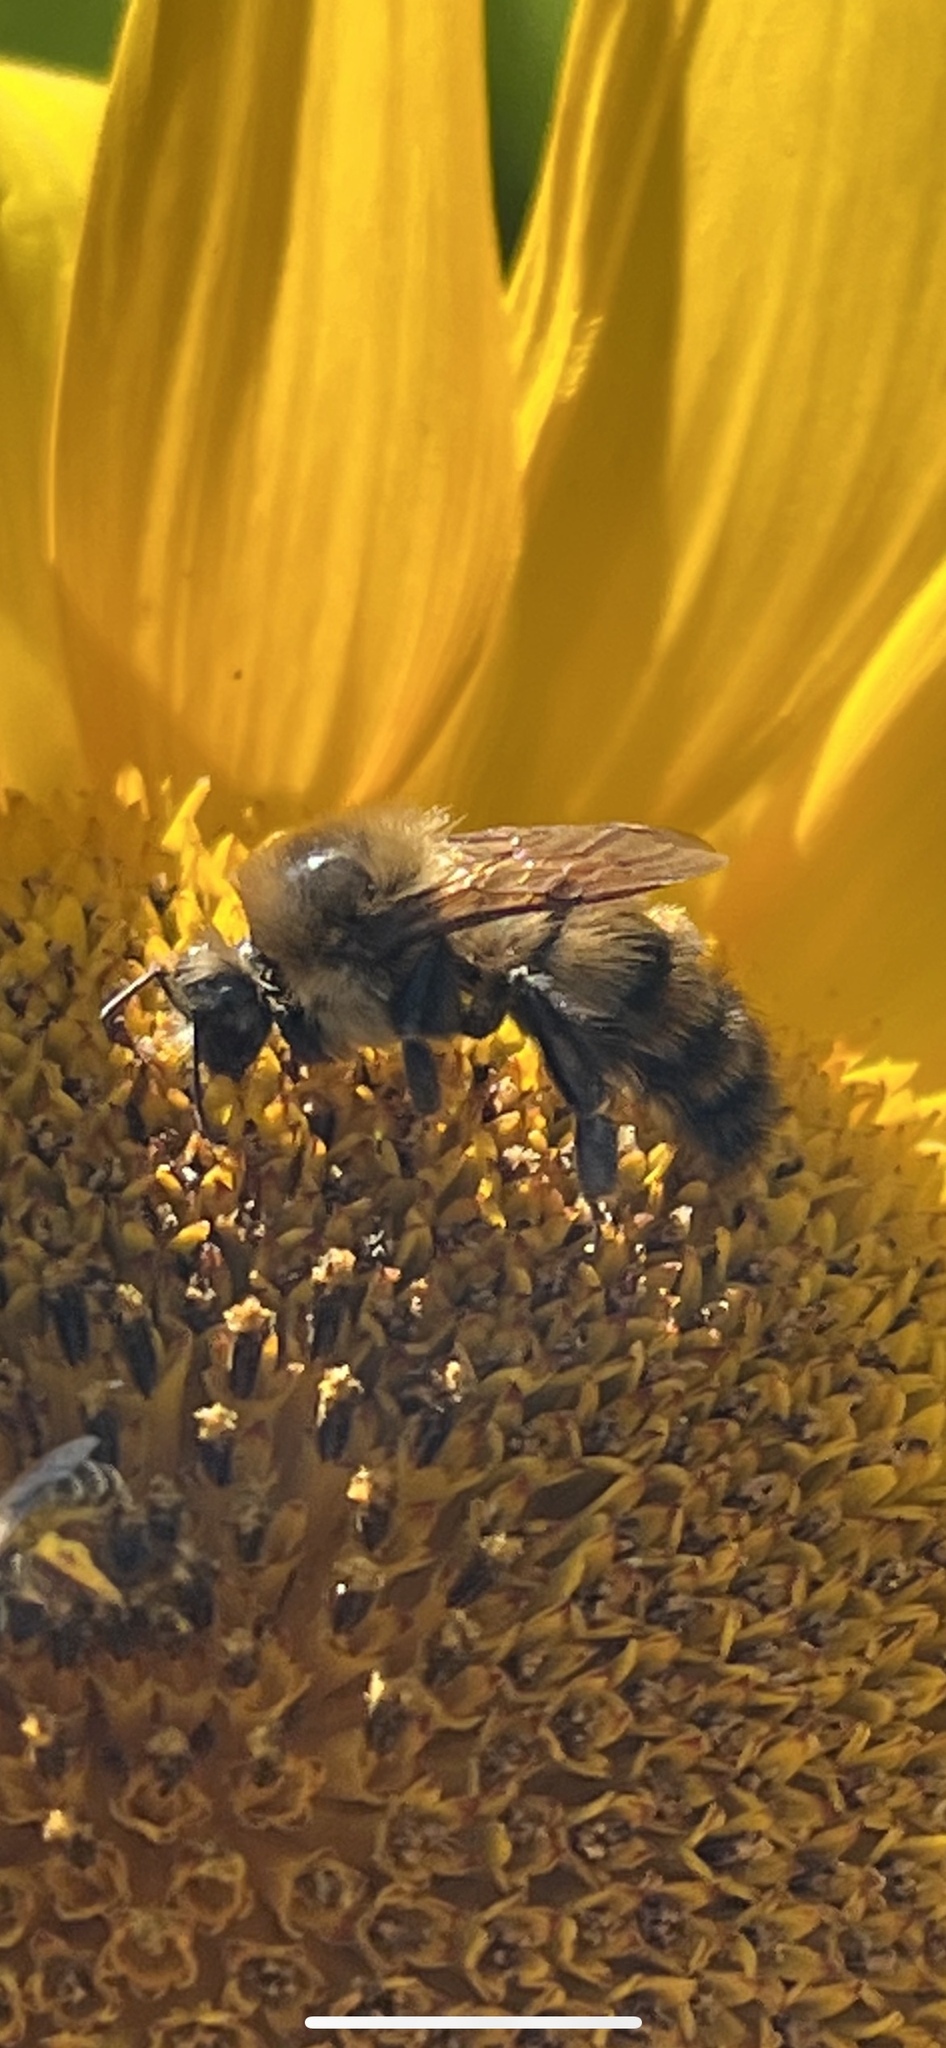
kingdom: Animalia
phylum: Arthropoda
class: Insecta
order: Hymenoptera
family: Apidae
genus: Bombus
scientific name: Bombus rufocinctus
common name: Red-belted bumble bee
